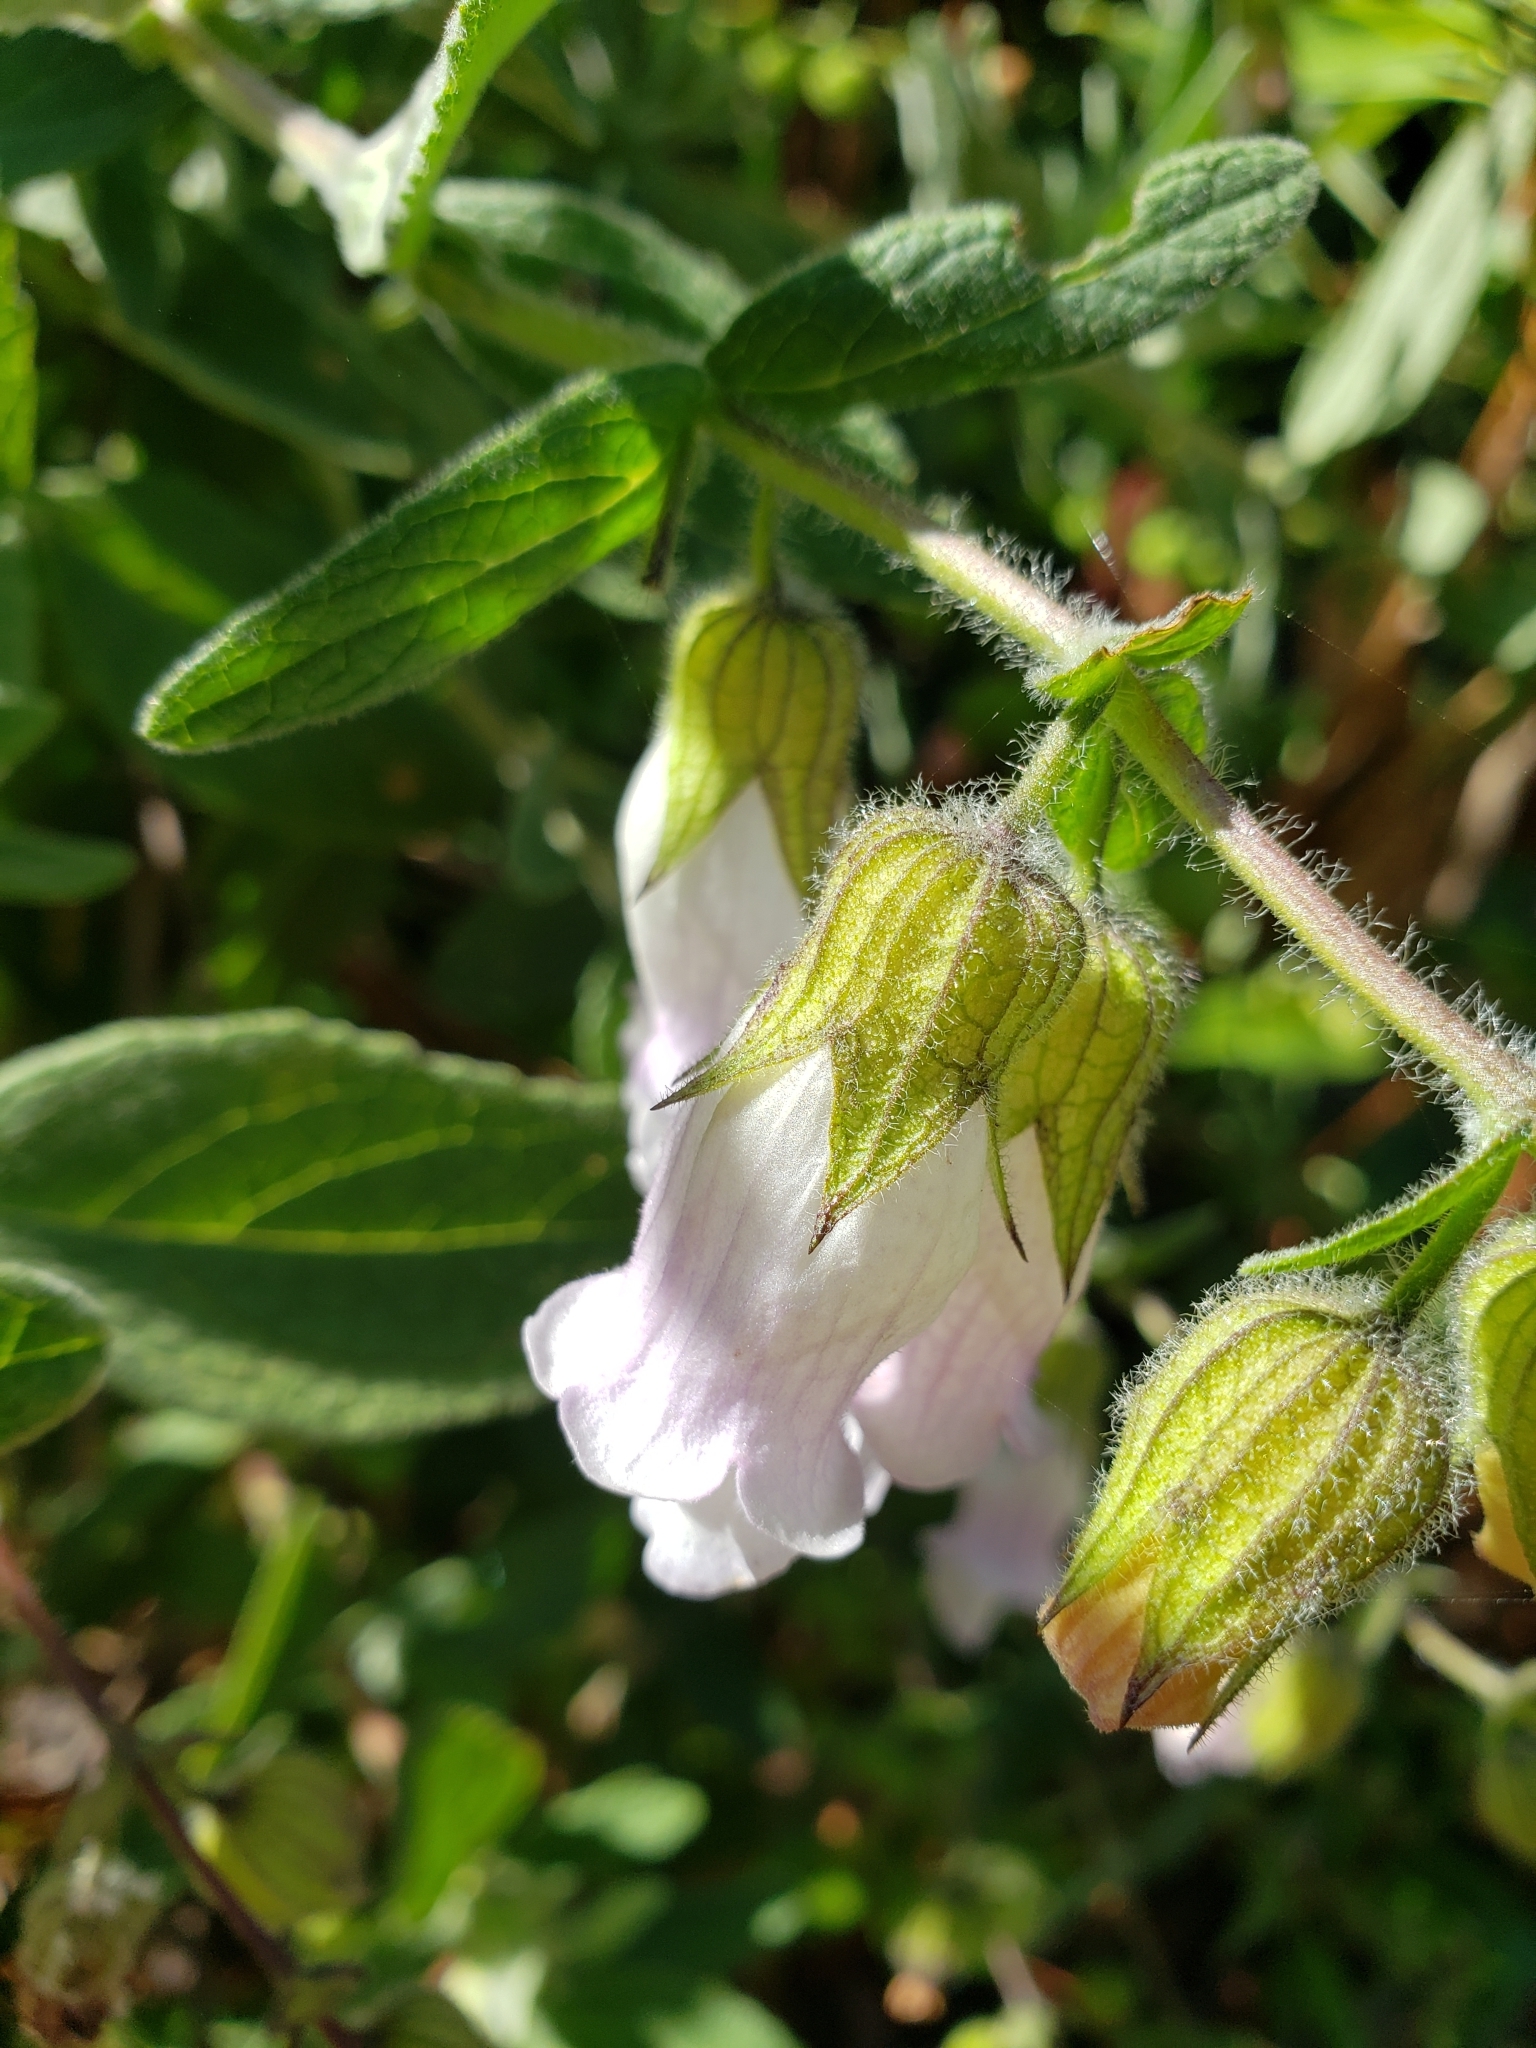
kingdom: Plantae
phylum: Tracheophyta
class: Magnoliopsida
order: Lamiales
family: Lamiaceae
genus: Lepechinia
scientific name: Lepechinia calycina
